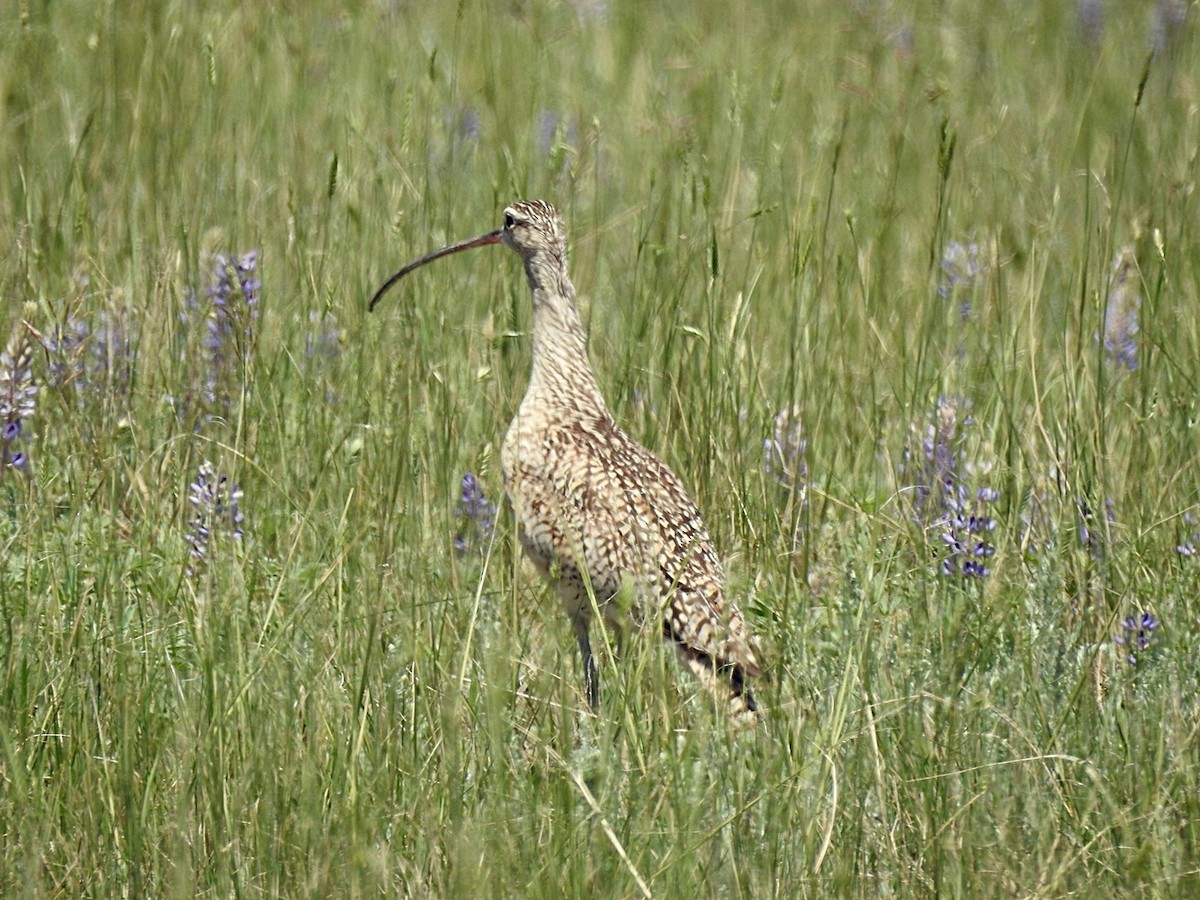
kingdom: Animalia
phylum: Chordata
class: Aves
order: Charadriiformes
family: Scolopacidae
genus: Numenius
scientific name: Numenius americanus
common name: Long-billed curlew
